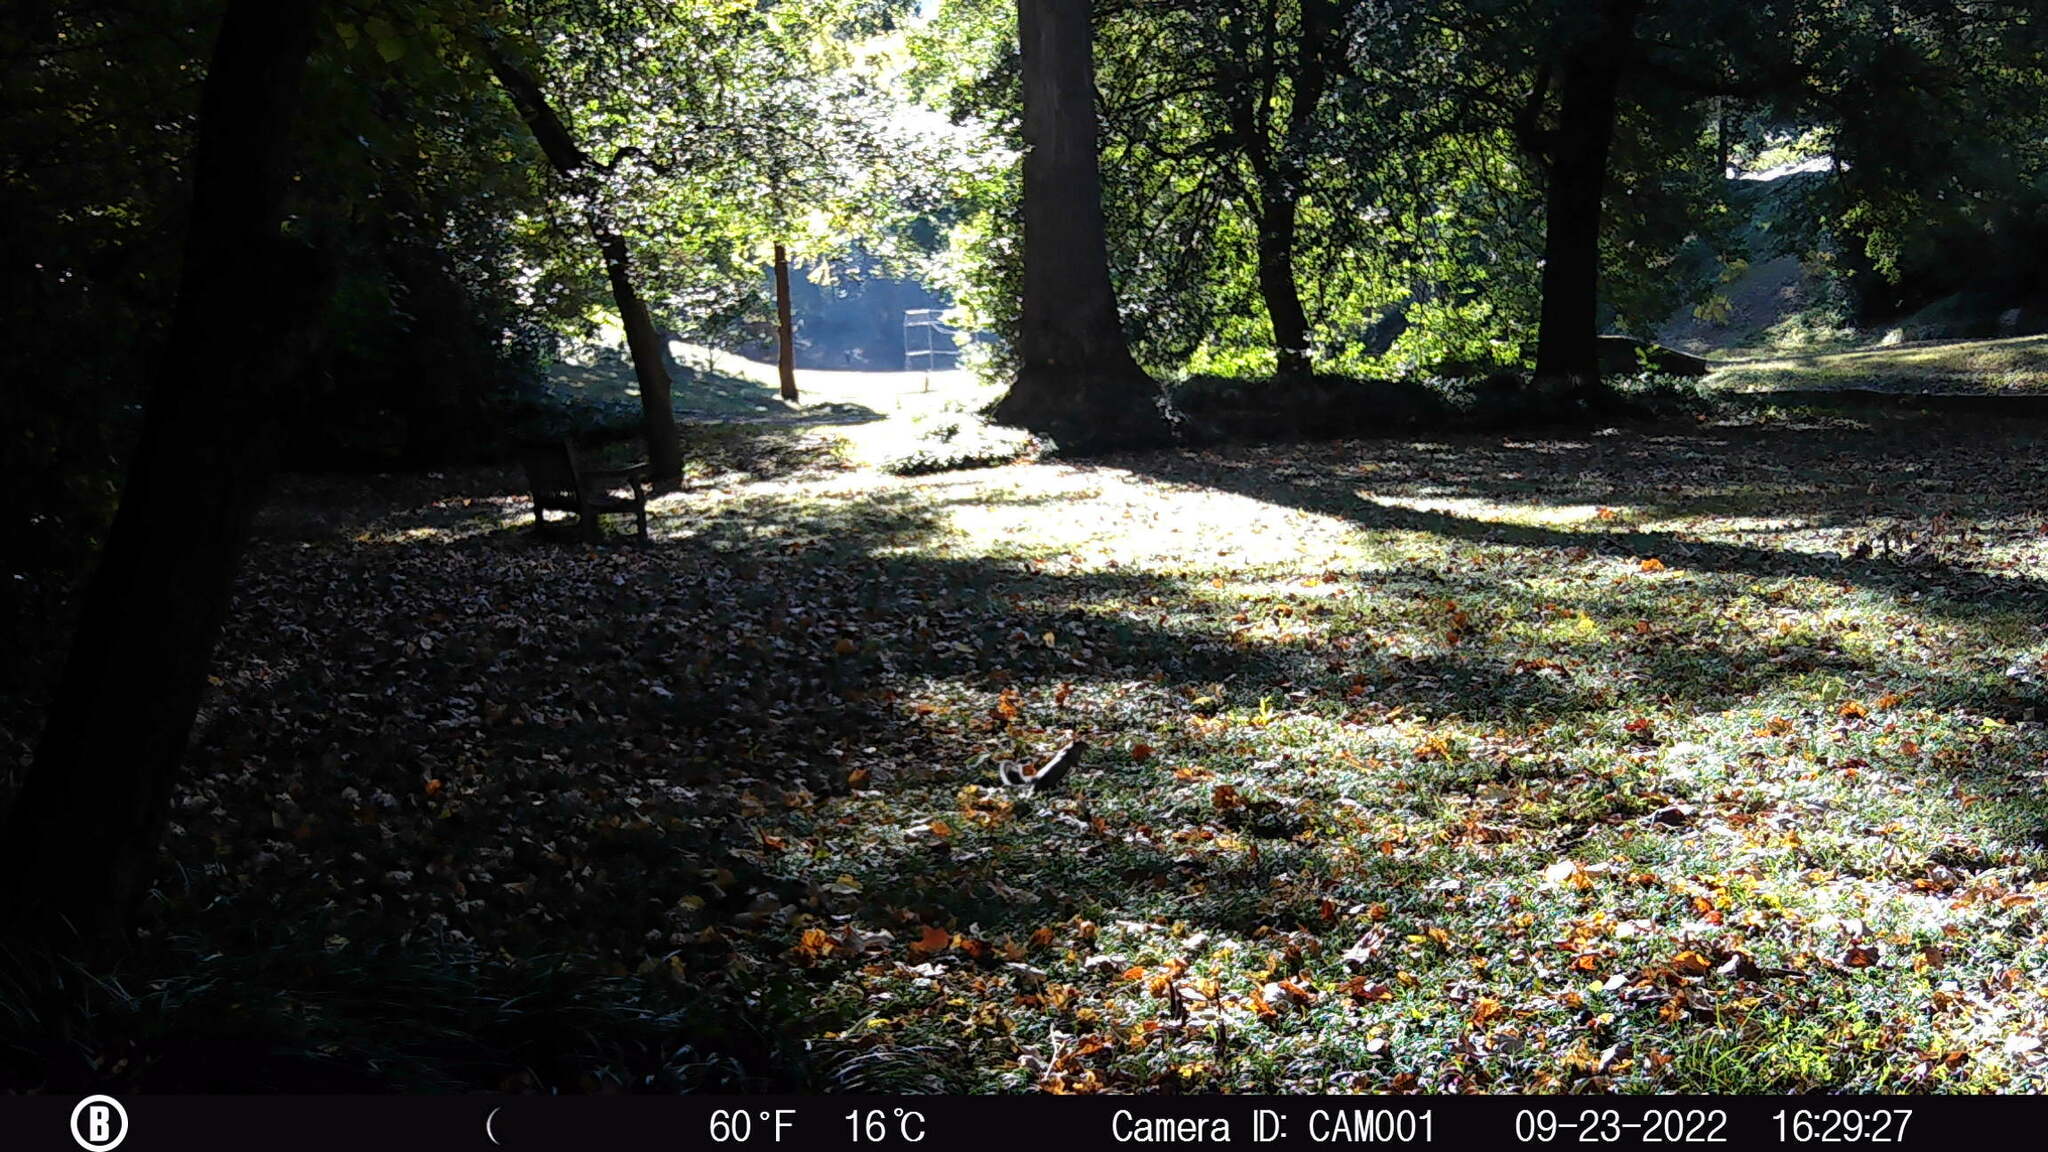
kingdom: Animalia
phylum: Chordata
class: Mammalia
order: Rodentia
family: Sciuridae
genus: Sciurus
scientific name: Sciurus carolinensis
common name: Eastern gray squirrel
